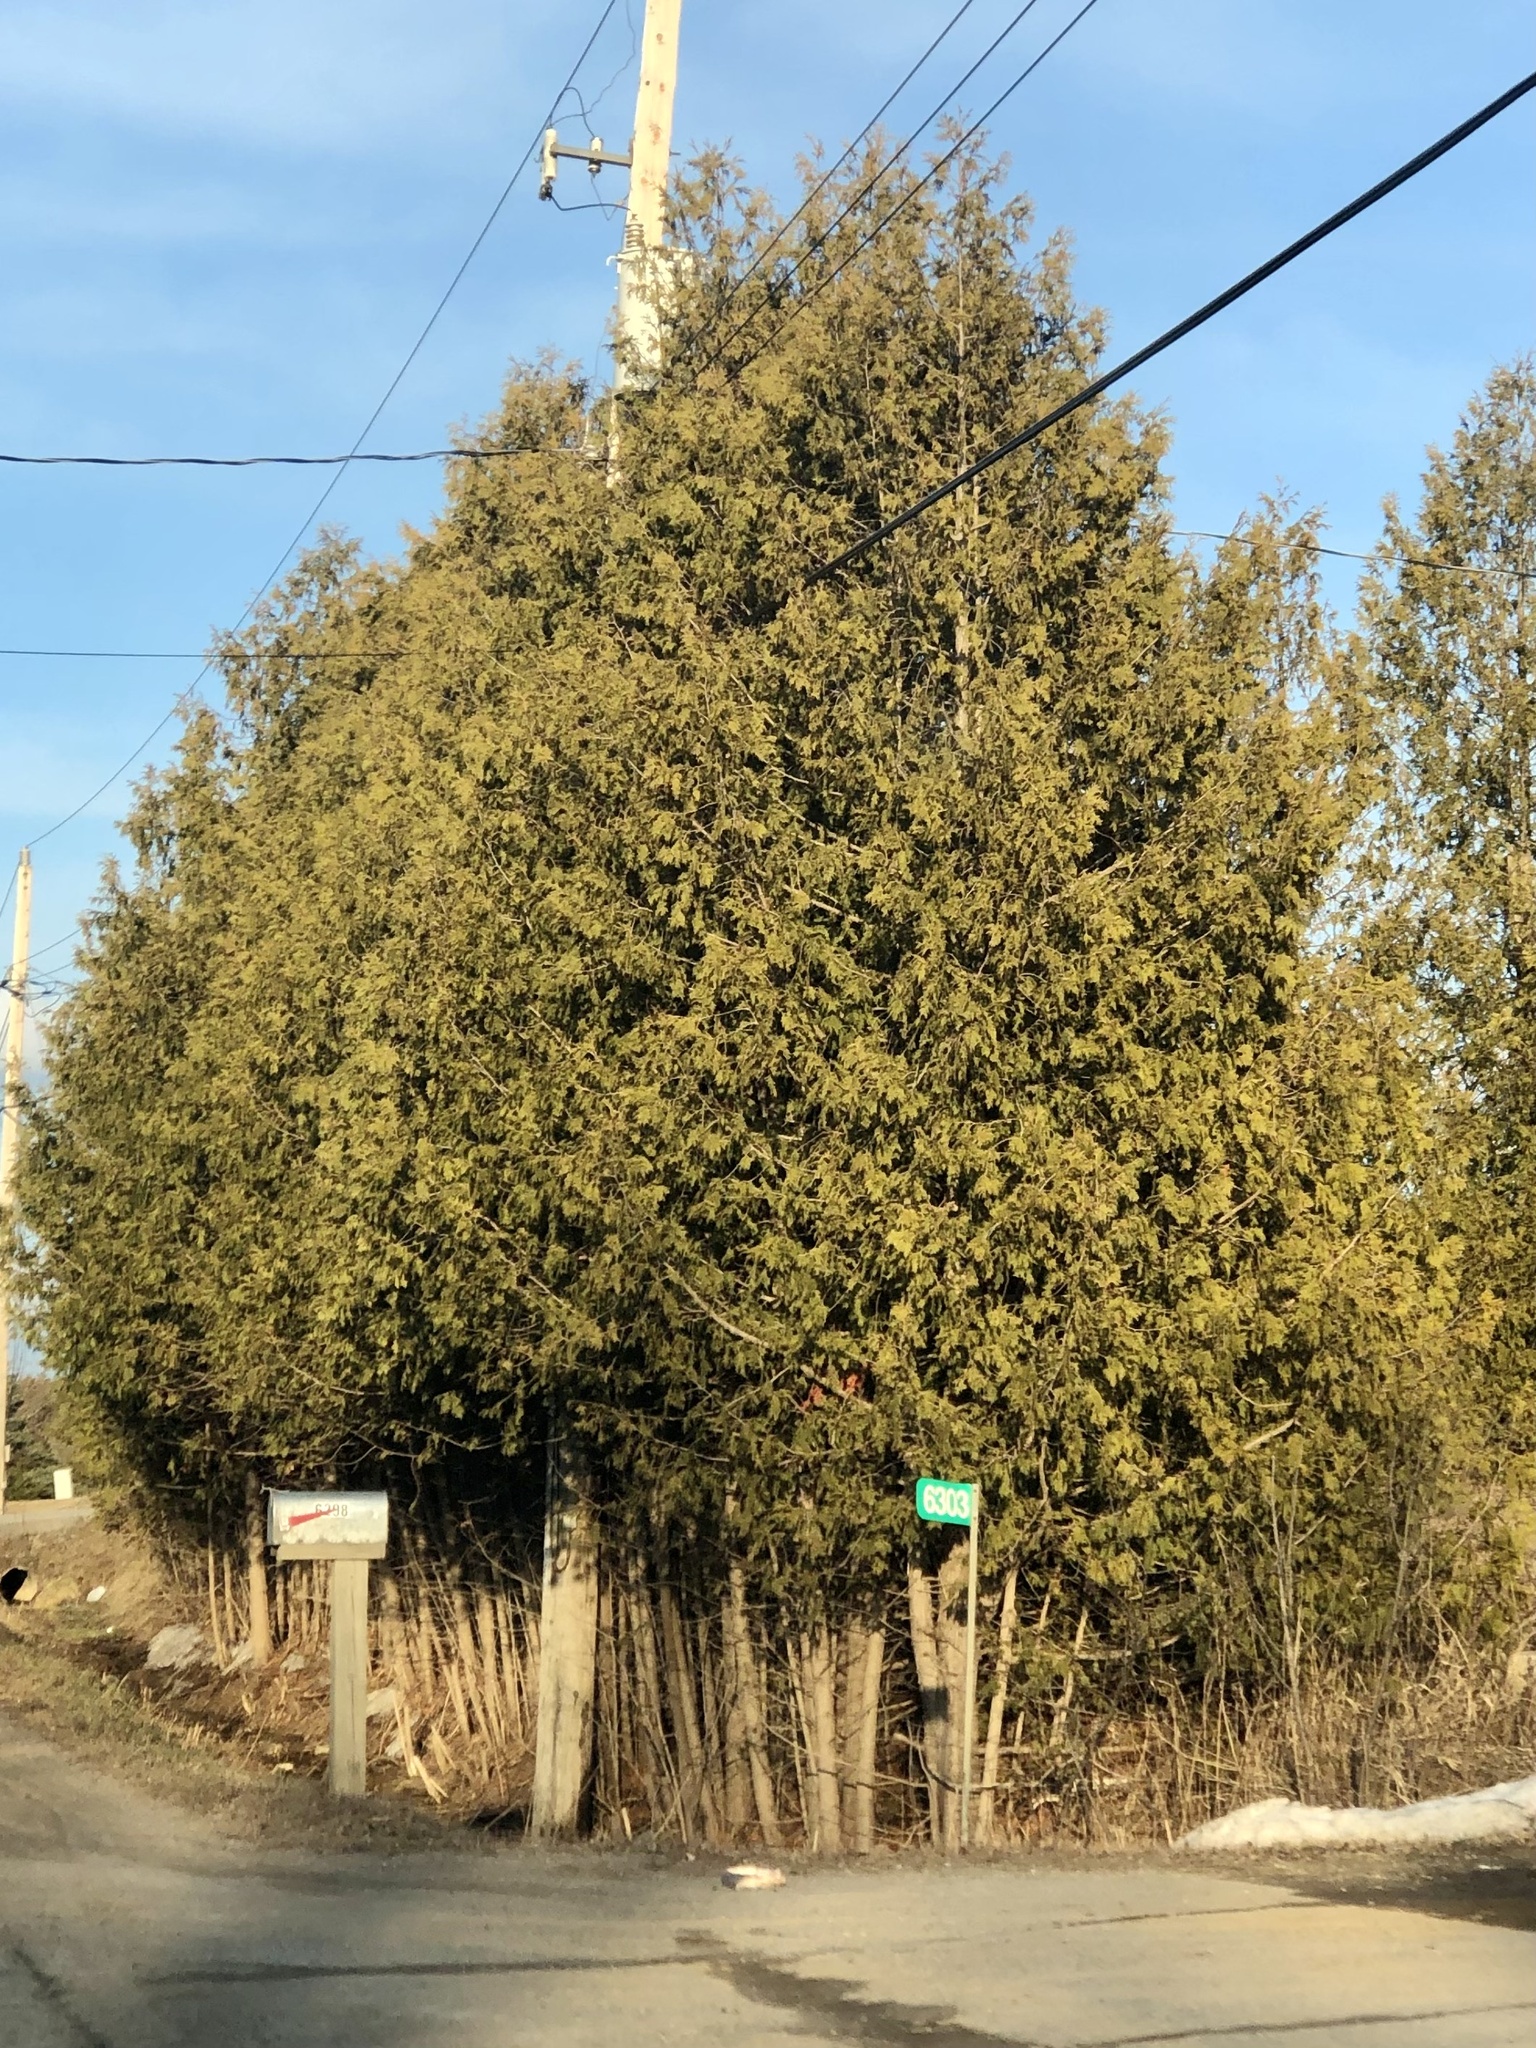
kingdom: Plantae
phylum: Tracheophyta
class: Pinopsida
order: Pinales
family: Cupressaceae
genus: Thuja
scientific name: Thuja occidentalis
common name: Northern white-cedar
